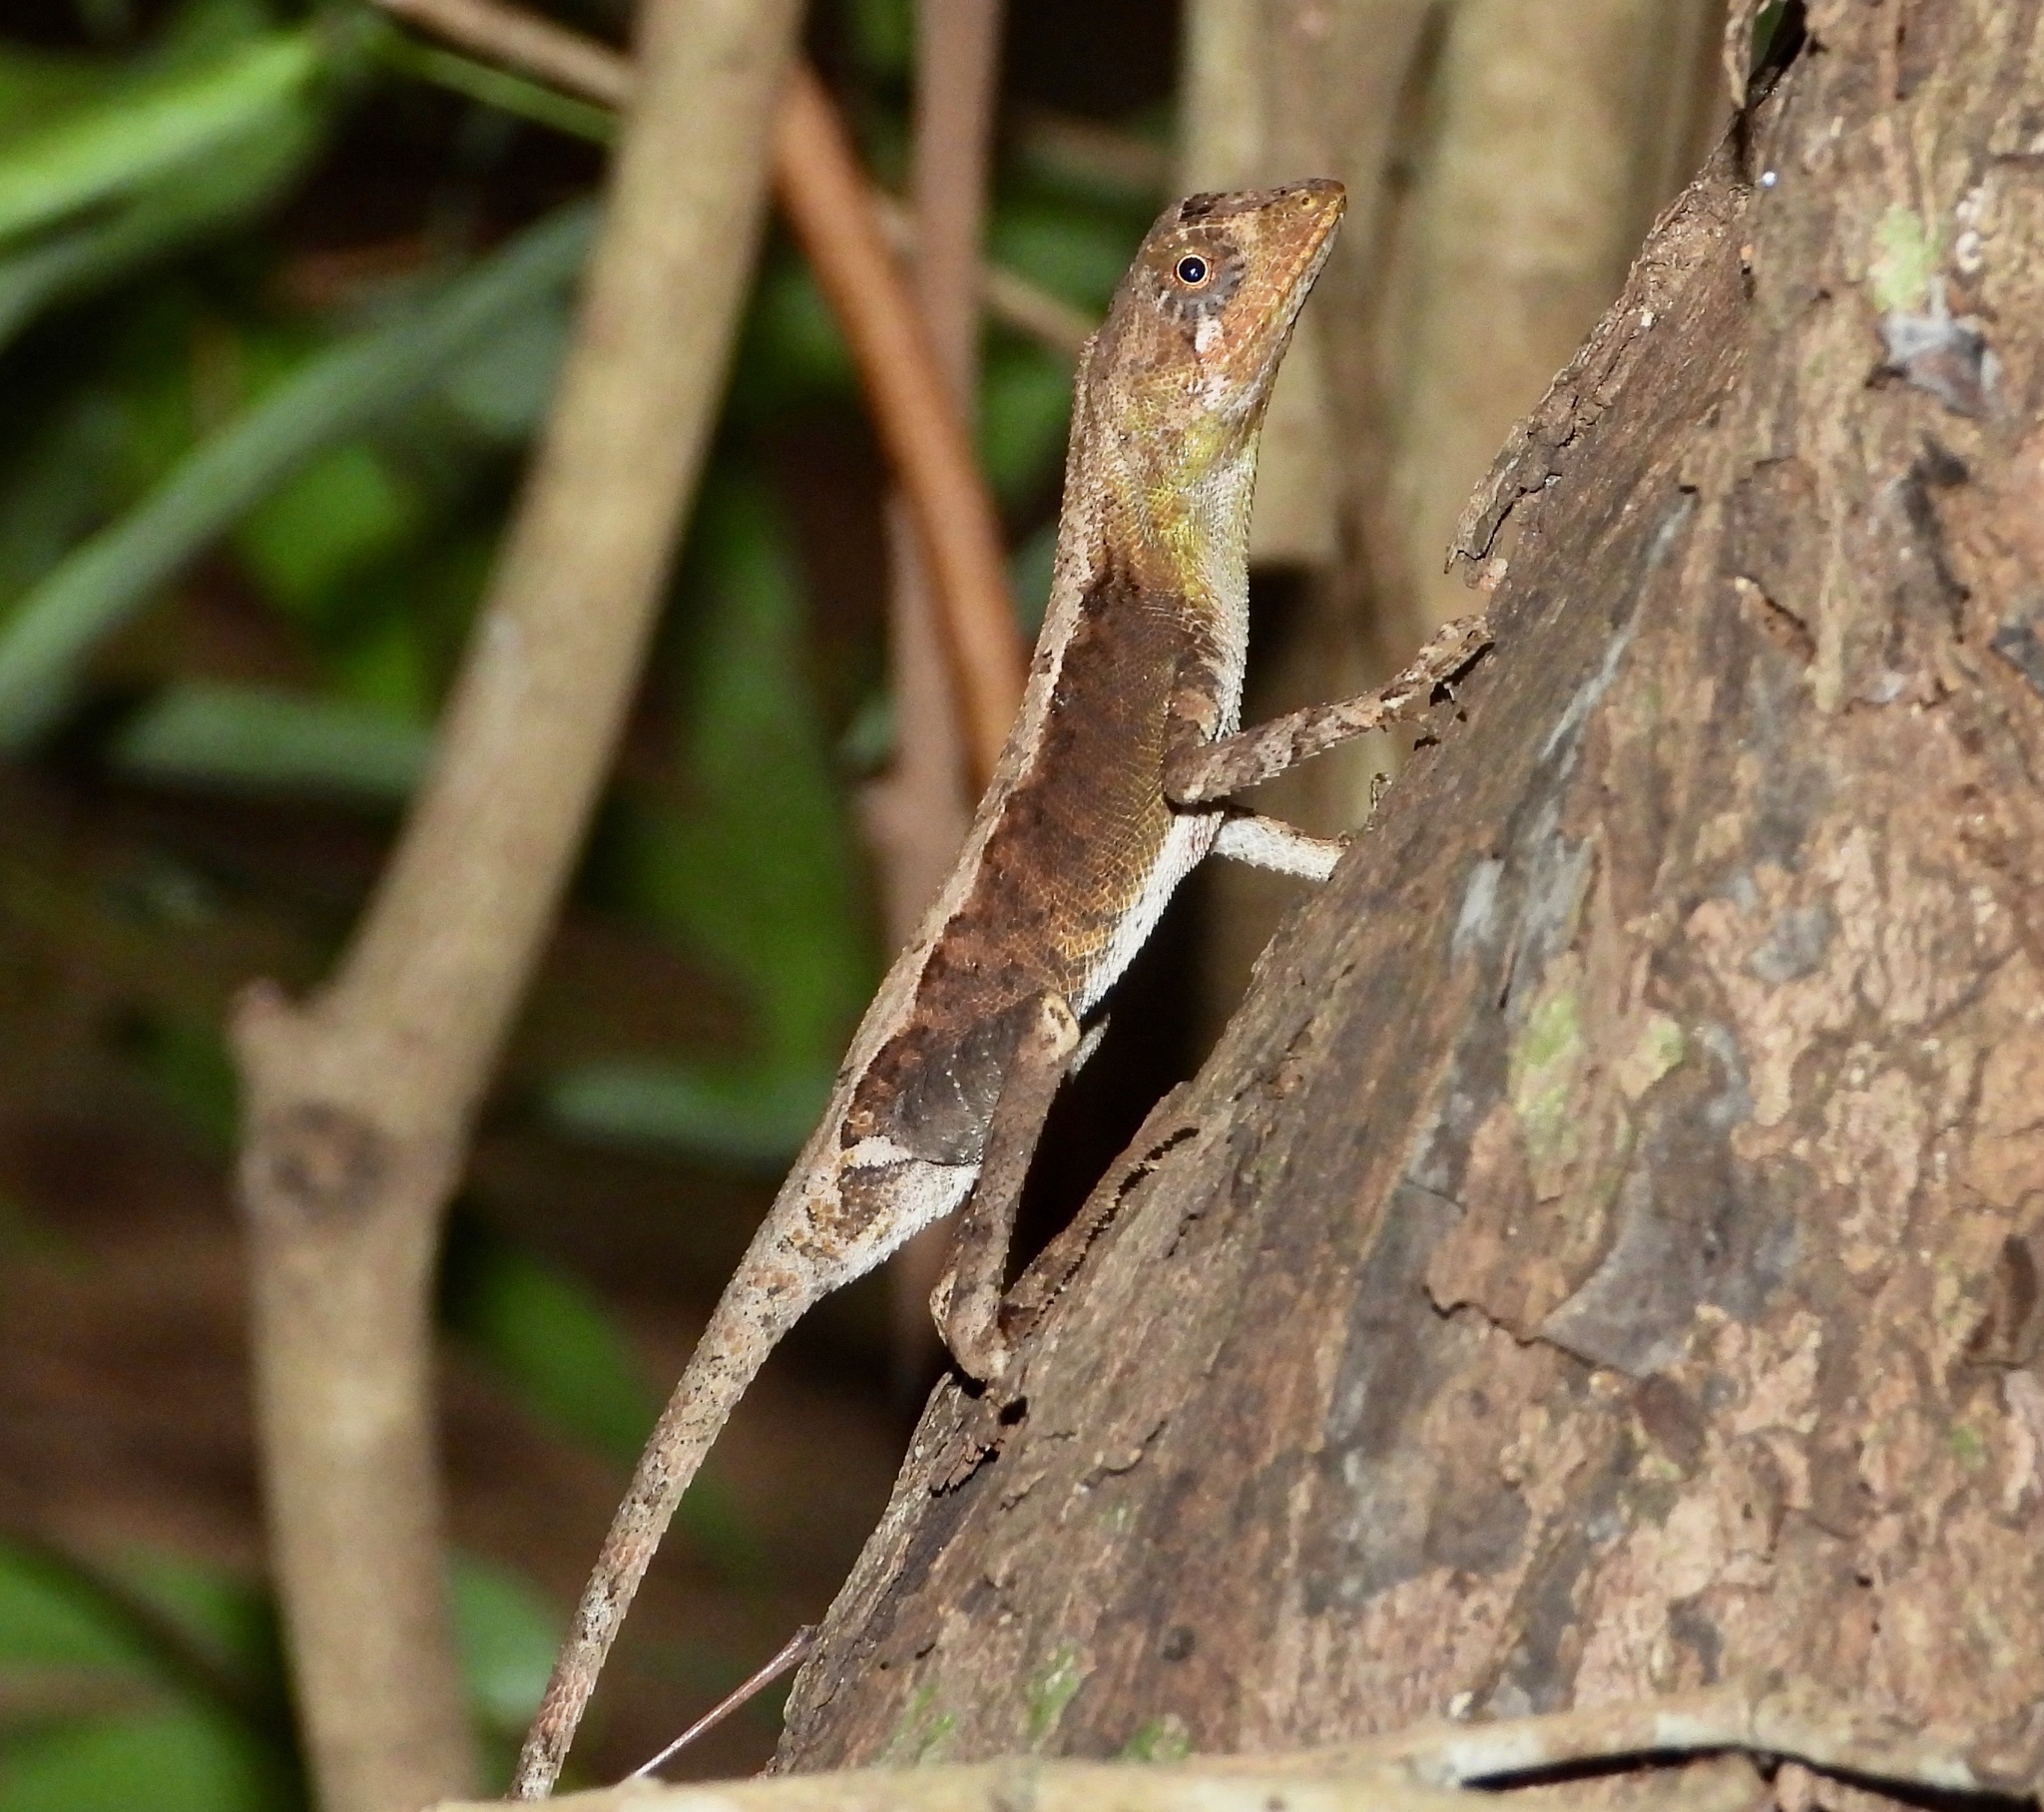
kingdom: Animalia
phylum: Chordata
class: Squamata
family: Agamidae
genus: Otocryptis
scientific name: Otocryptis nigristigma
